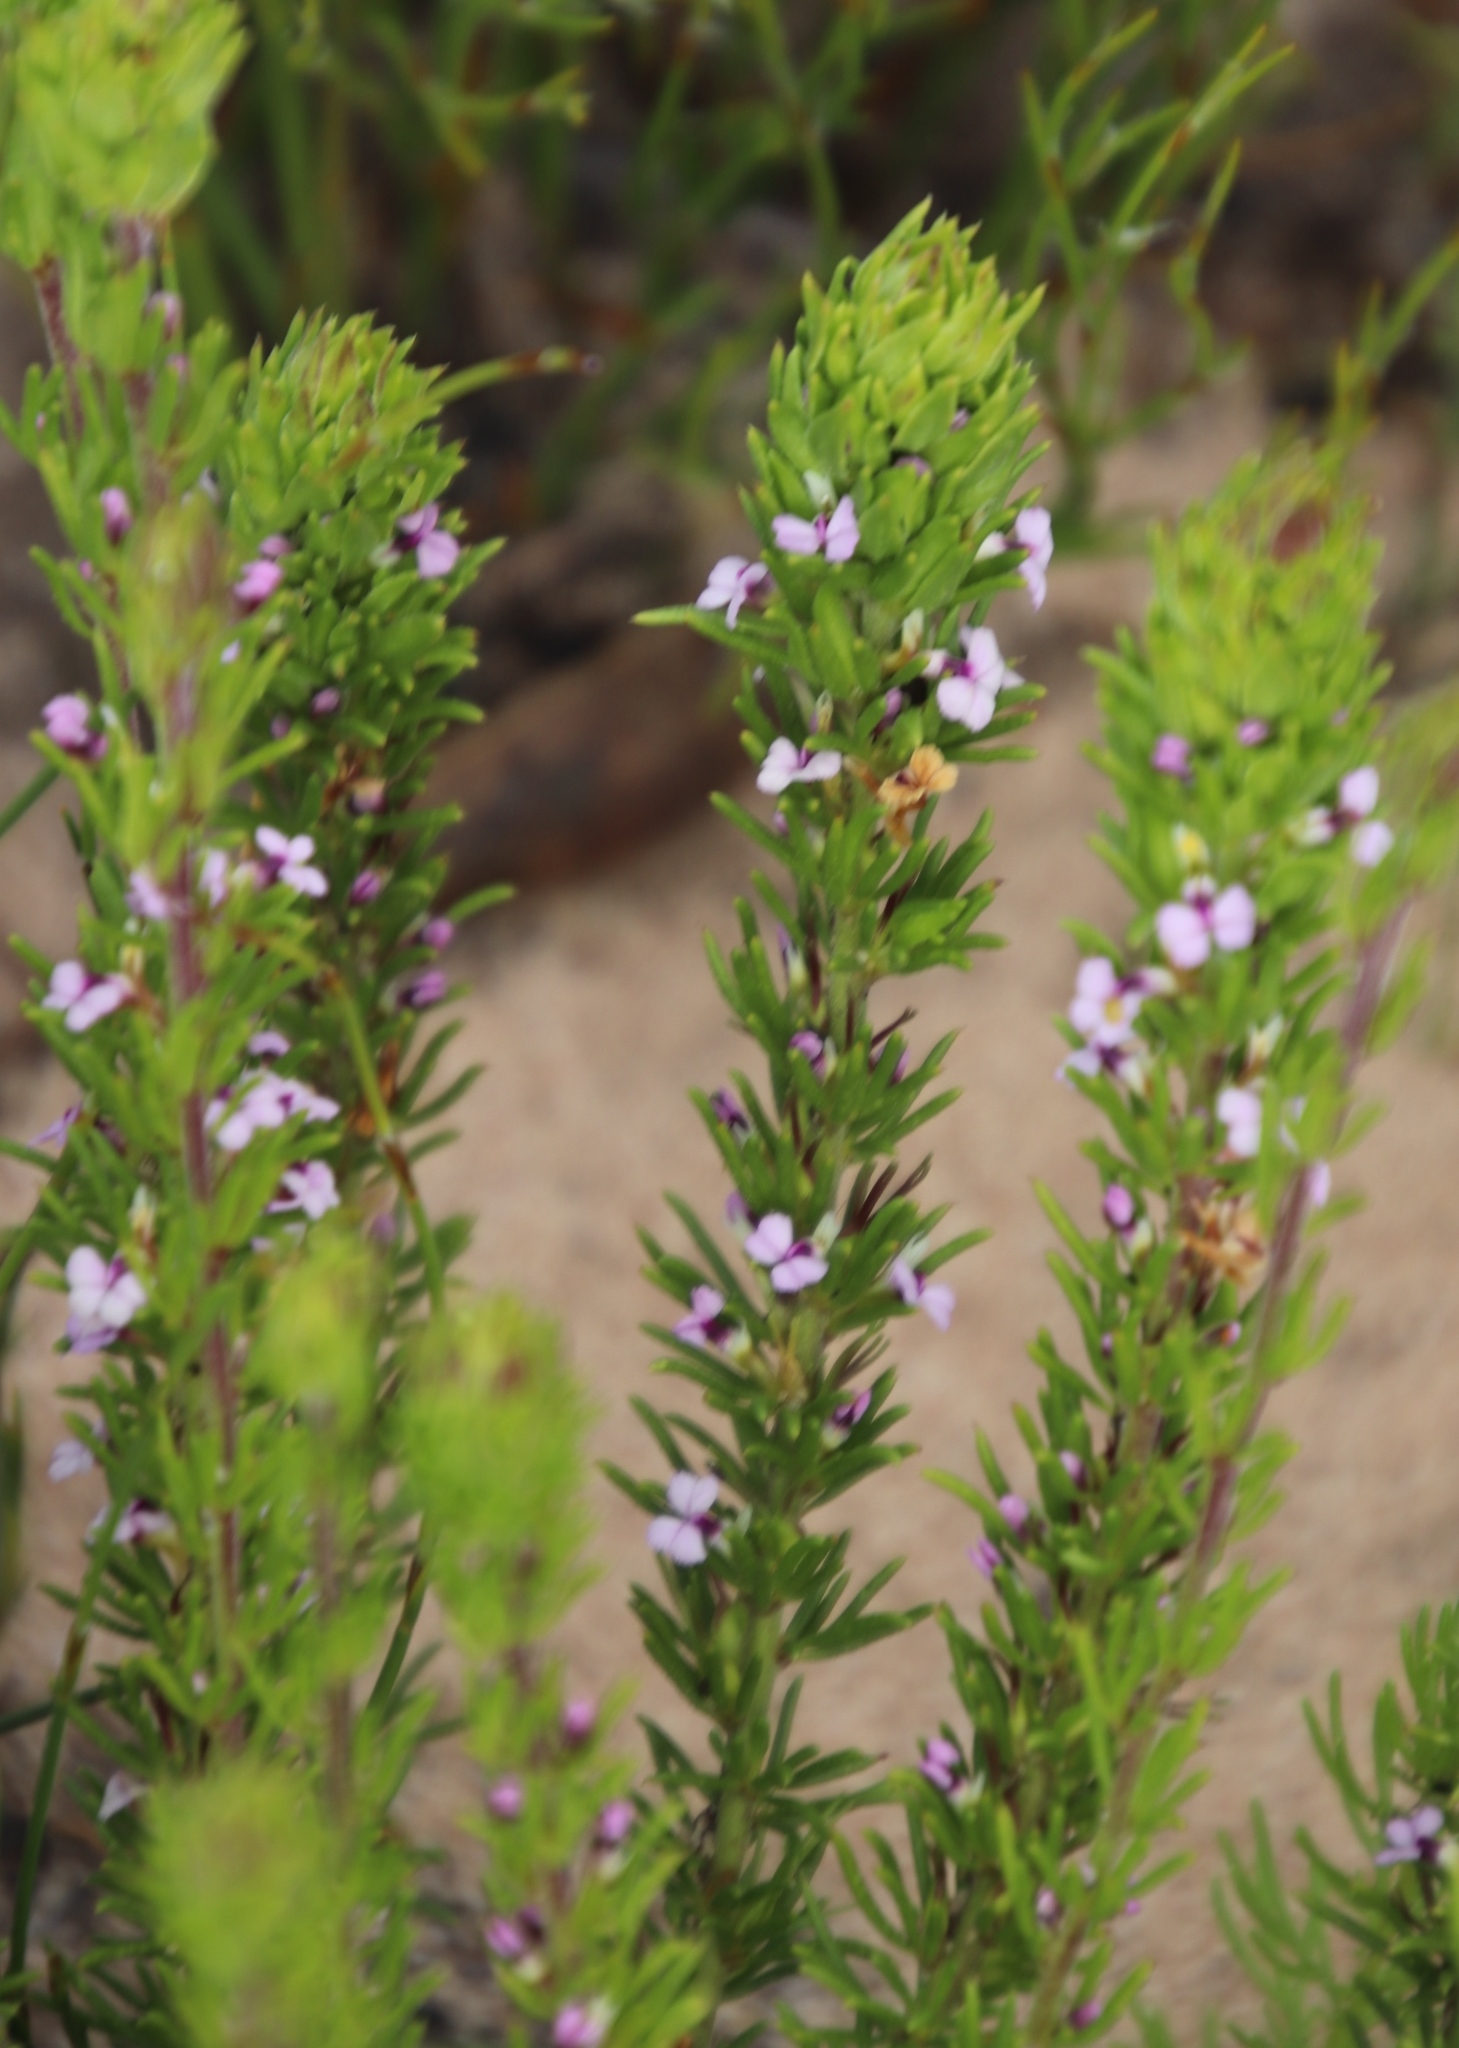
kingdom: Plantae
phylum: Tracheophyta
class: Magnoliopsida
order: Fabales
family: Polygalaceae
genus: Muraltia
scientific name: Muraltia alopecuroides
